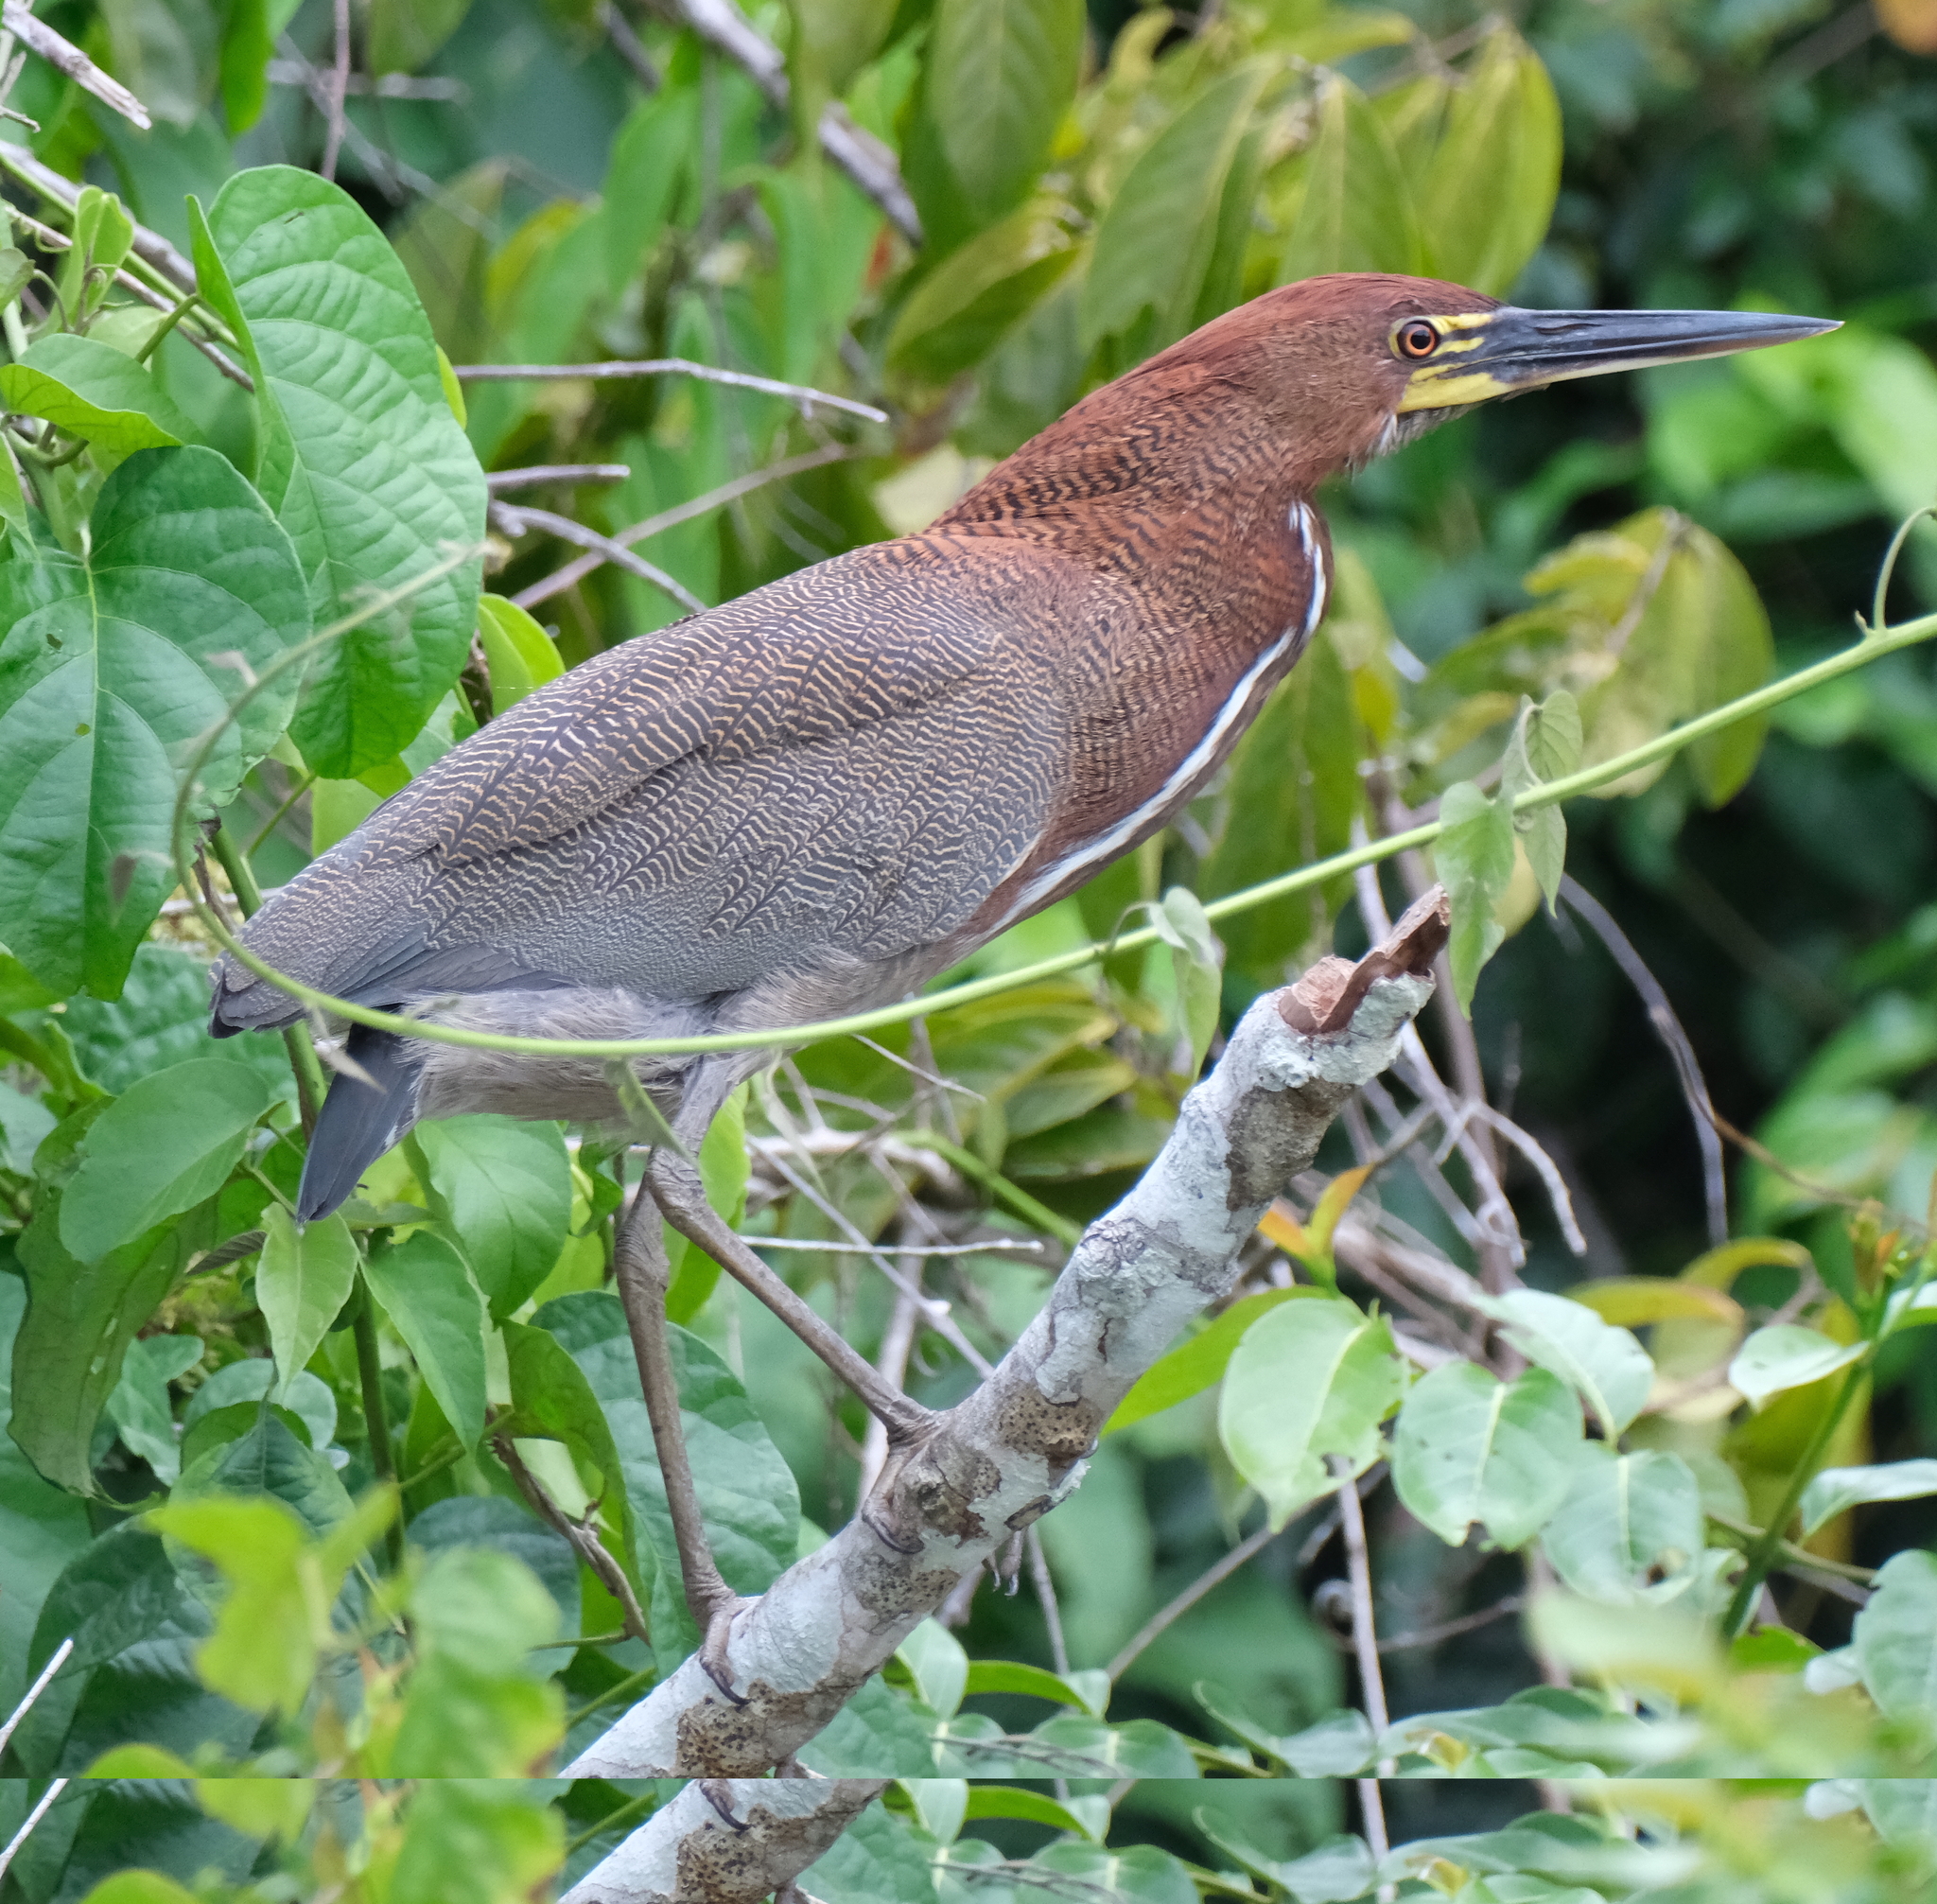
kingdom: Animalia
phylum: Chordata
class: Aves
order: Pelecaniformes
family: Ardeidae
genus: Tigrisoma
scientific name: Tigrisoma lineatum
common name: Rufescent tiger-heron
